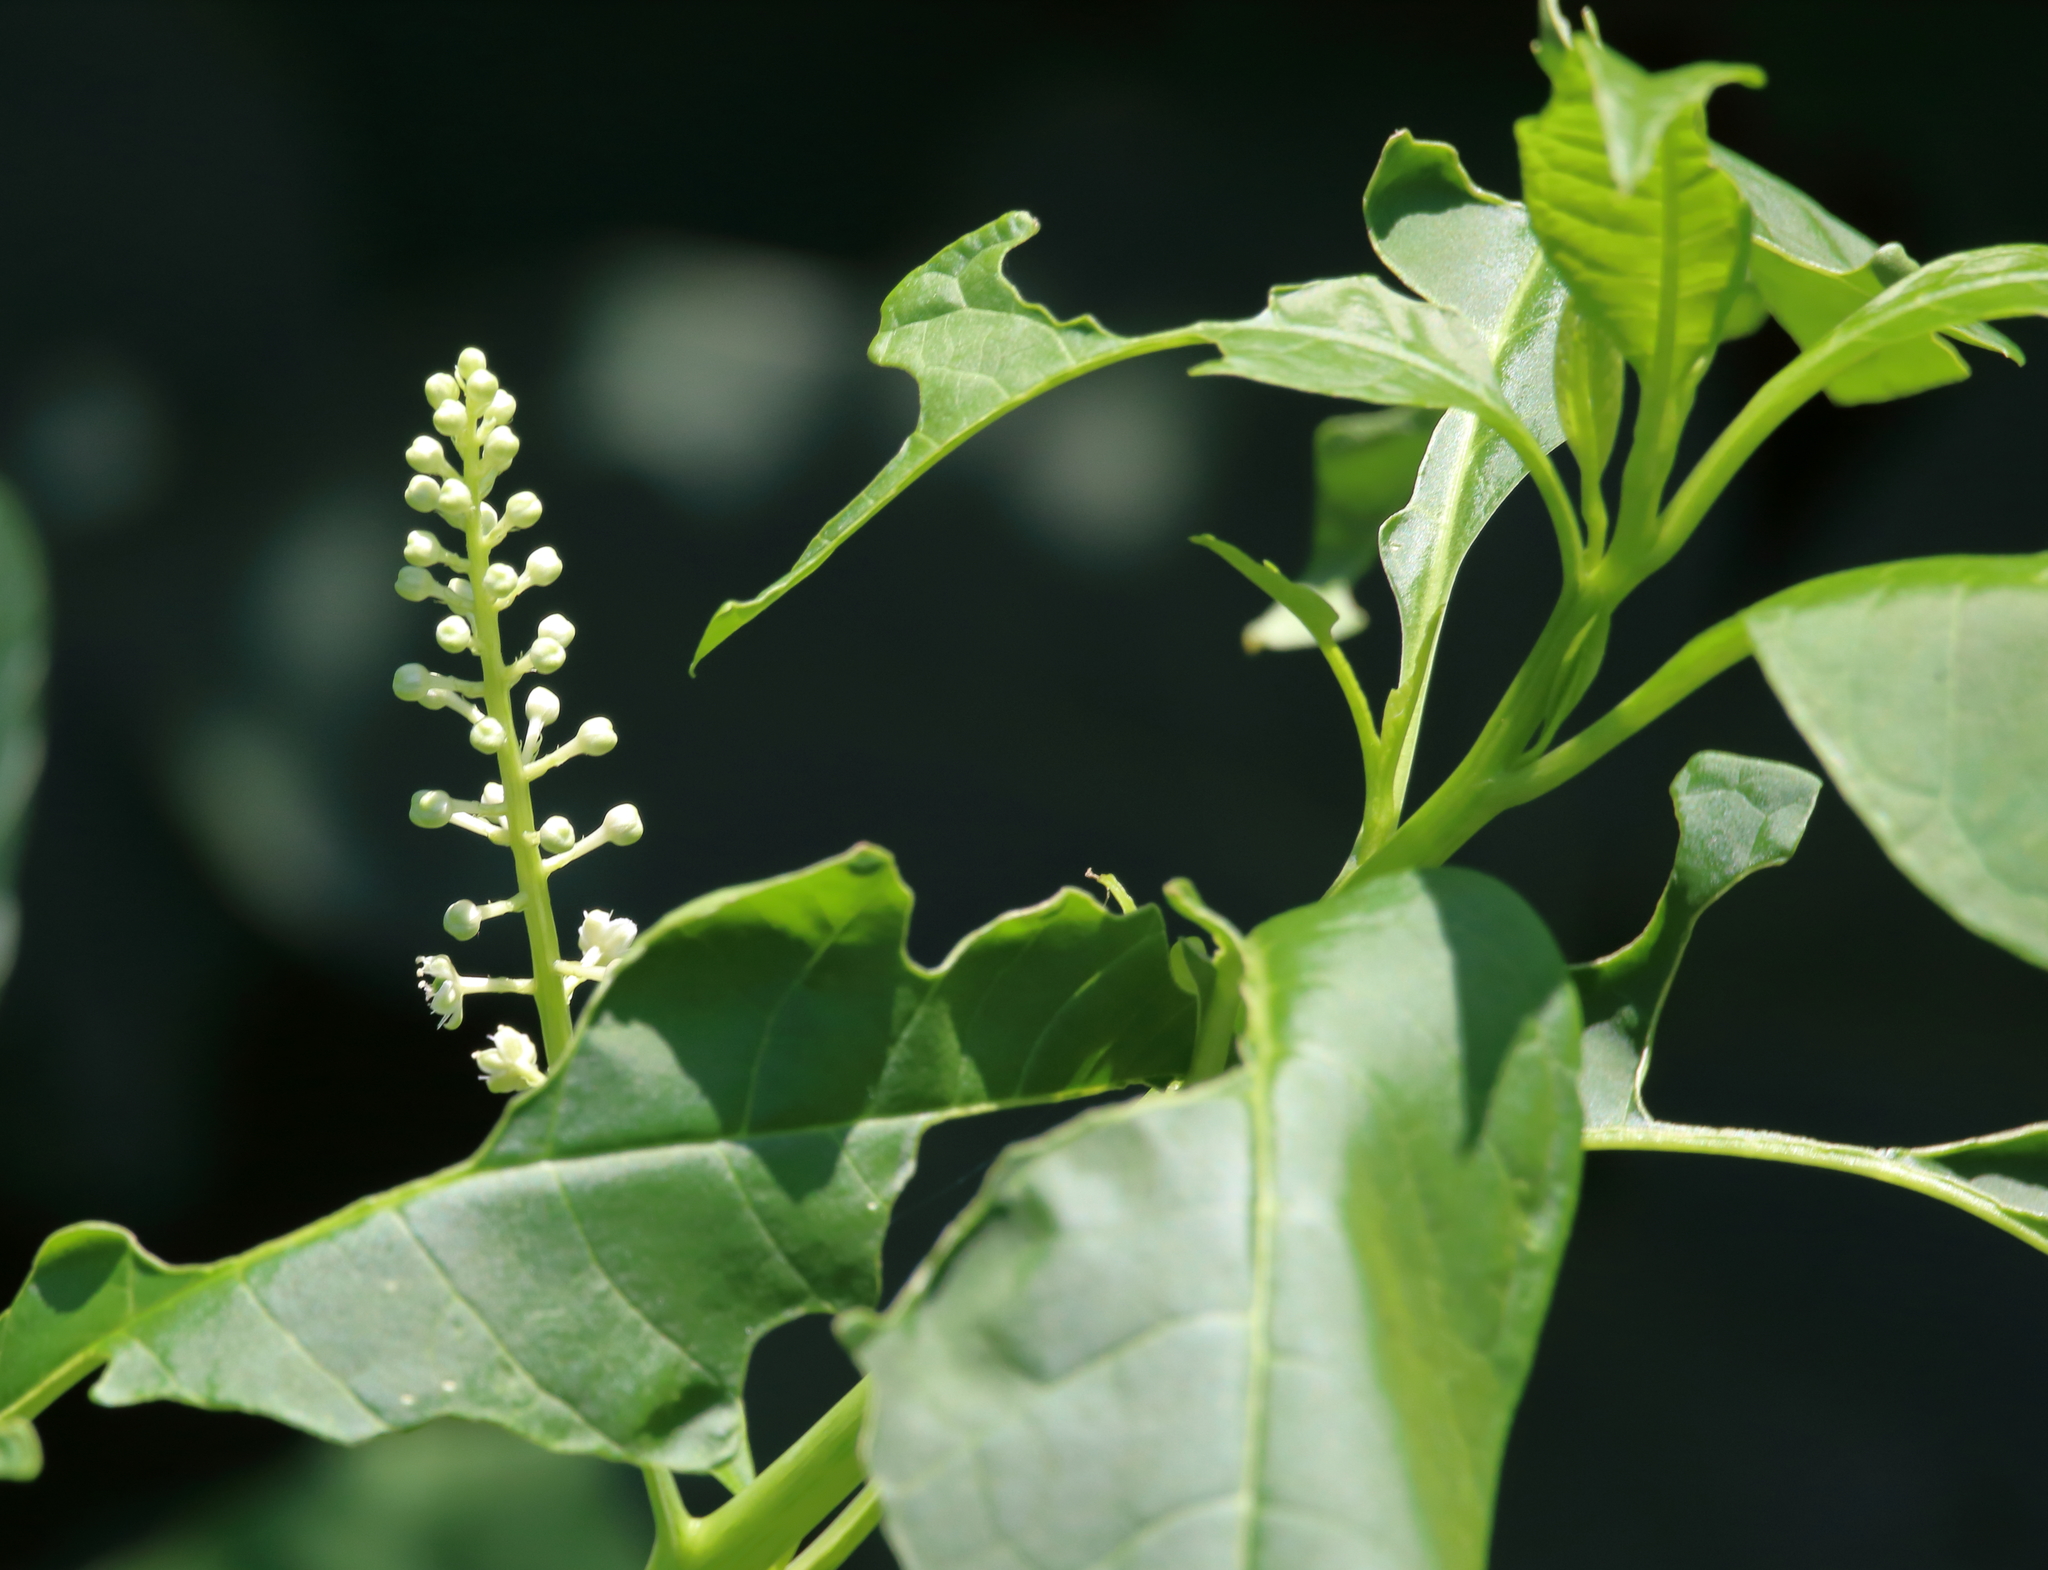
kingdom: Plantae
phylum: Tracheophyta
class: Magnoliopsida
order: Caryophyllales
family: Phytolaccaceae
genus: Phytolacca
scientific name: Phytolacca americana
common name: American pokeweed
